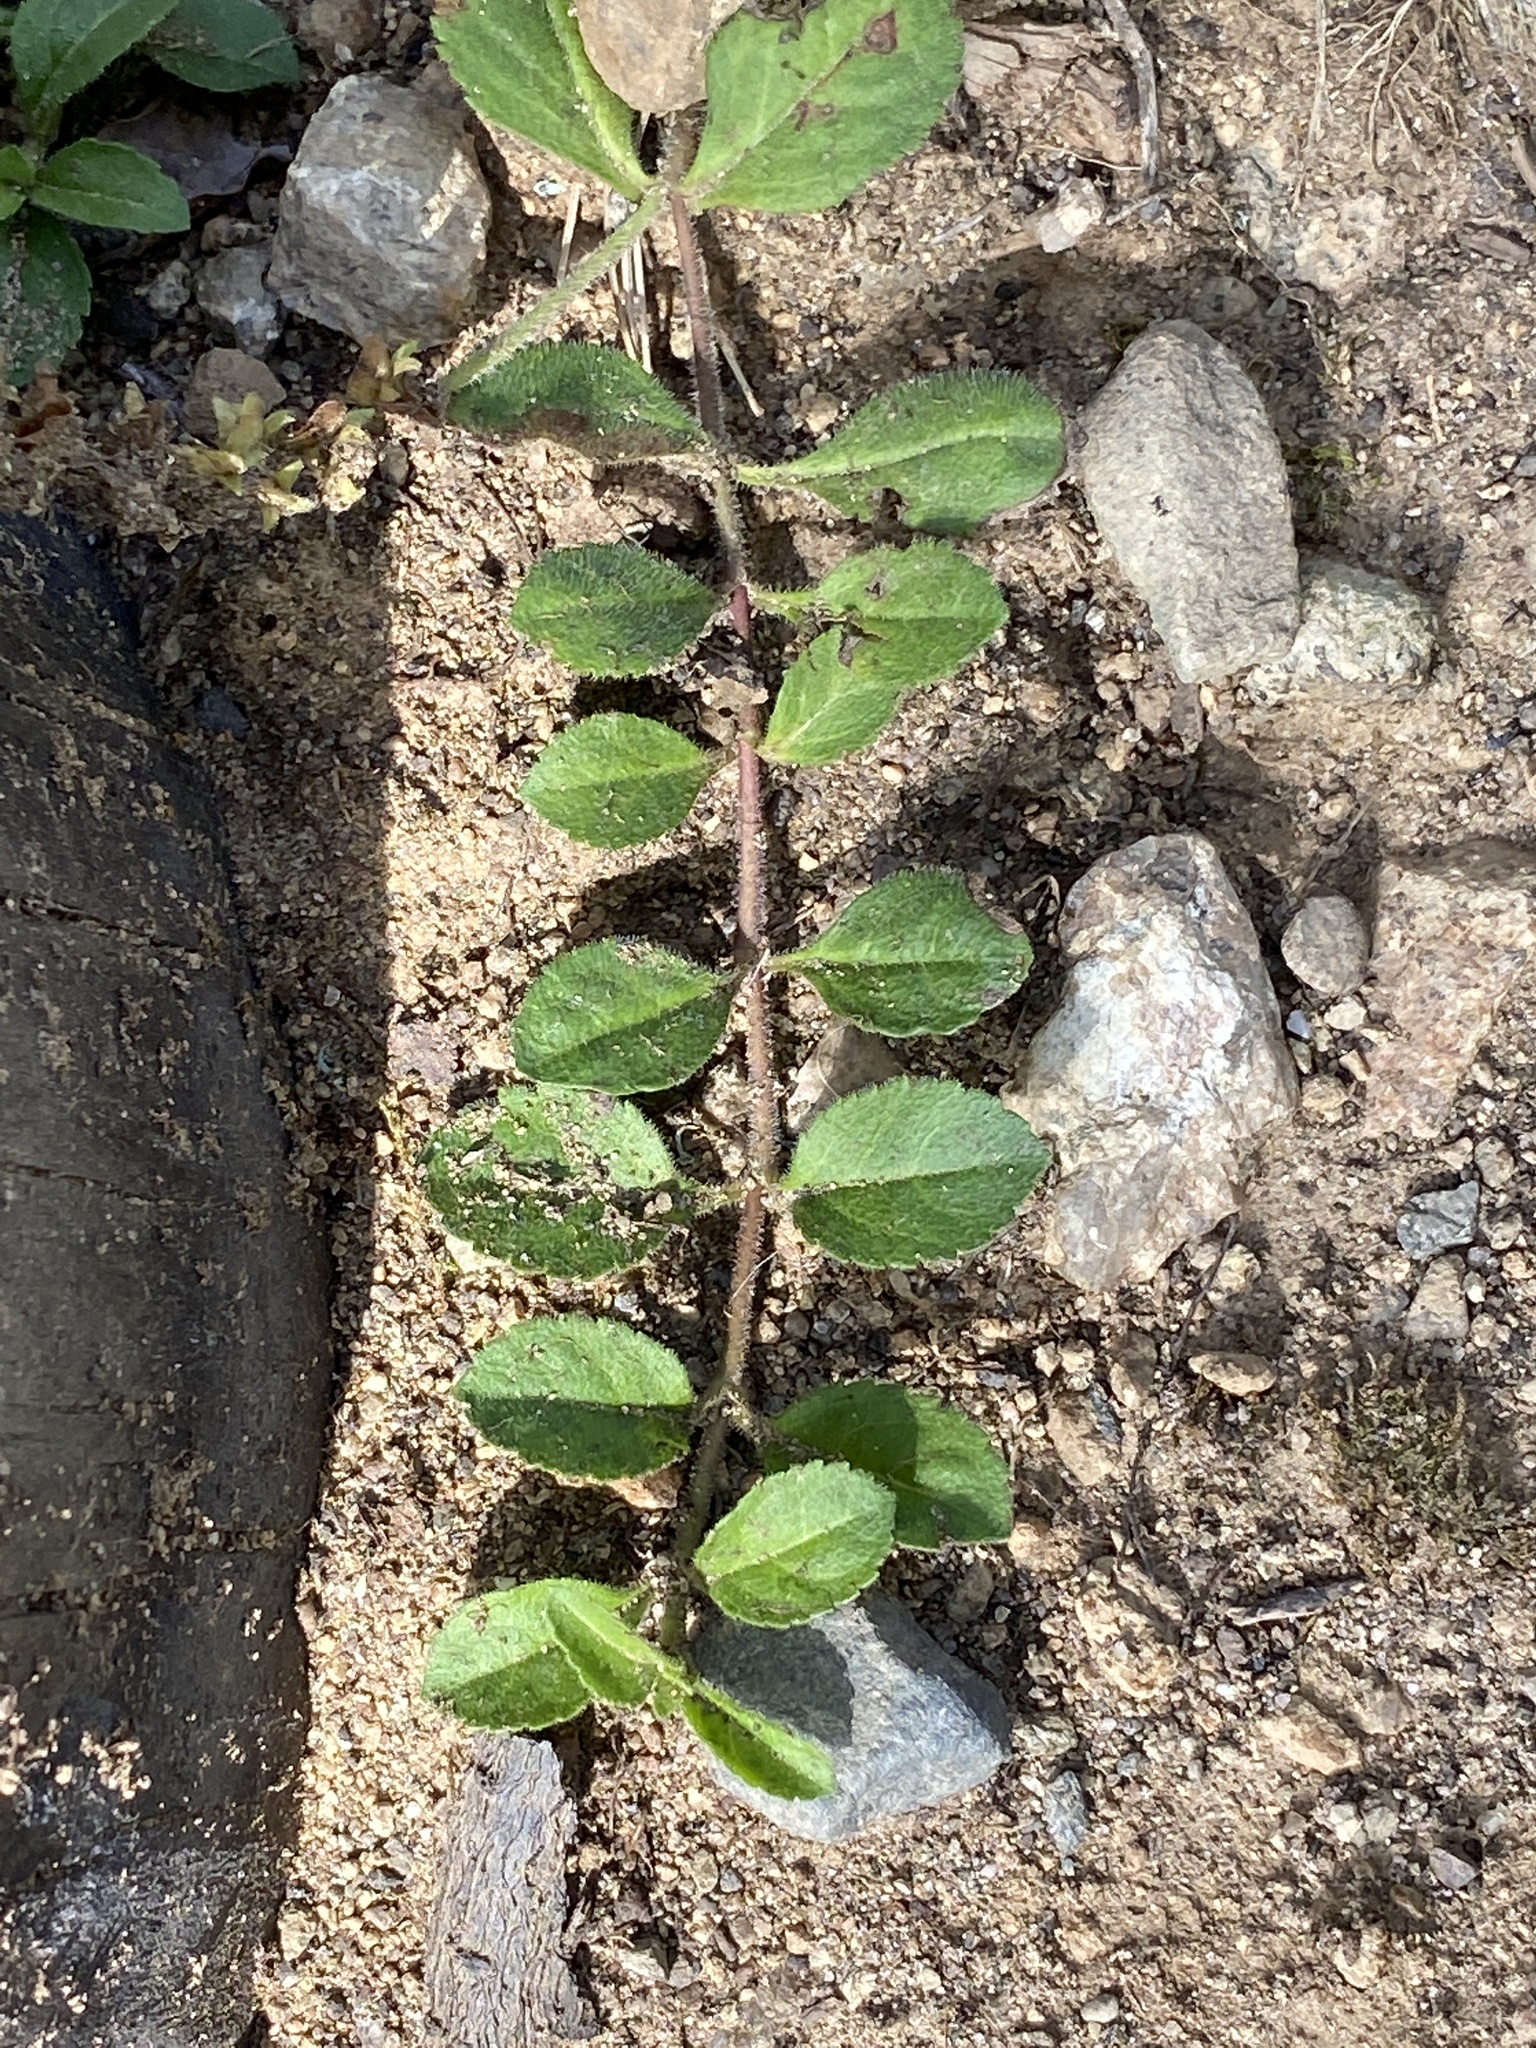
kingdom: Plantae
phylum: Tracheophyta
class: Magnoliopsida
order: Lamiales
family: Plantaginaceae
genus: Veronica
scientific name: Veronica officinalis
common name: Common speedwell
